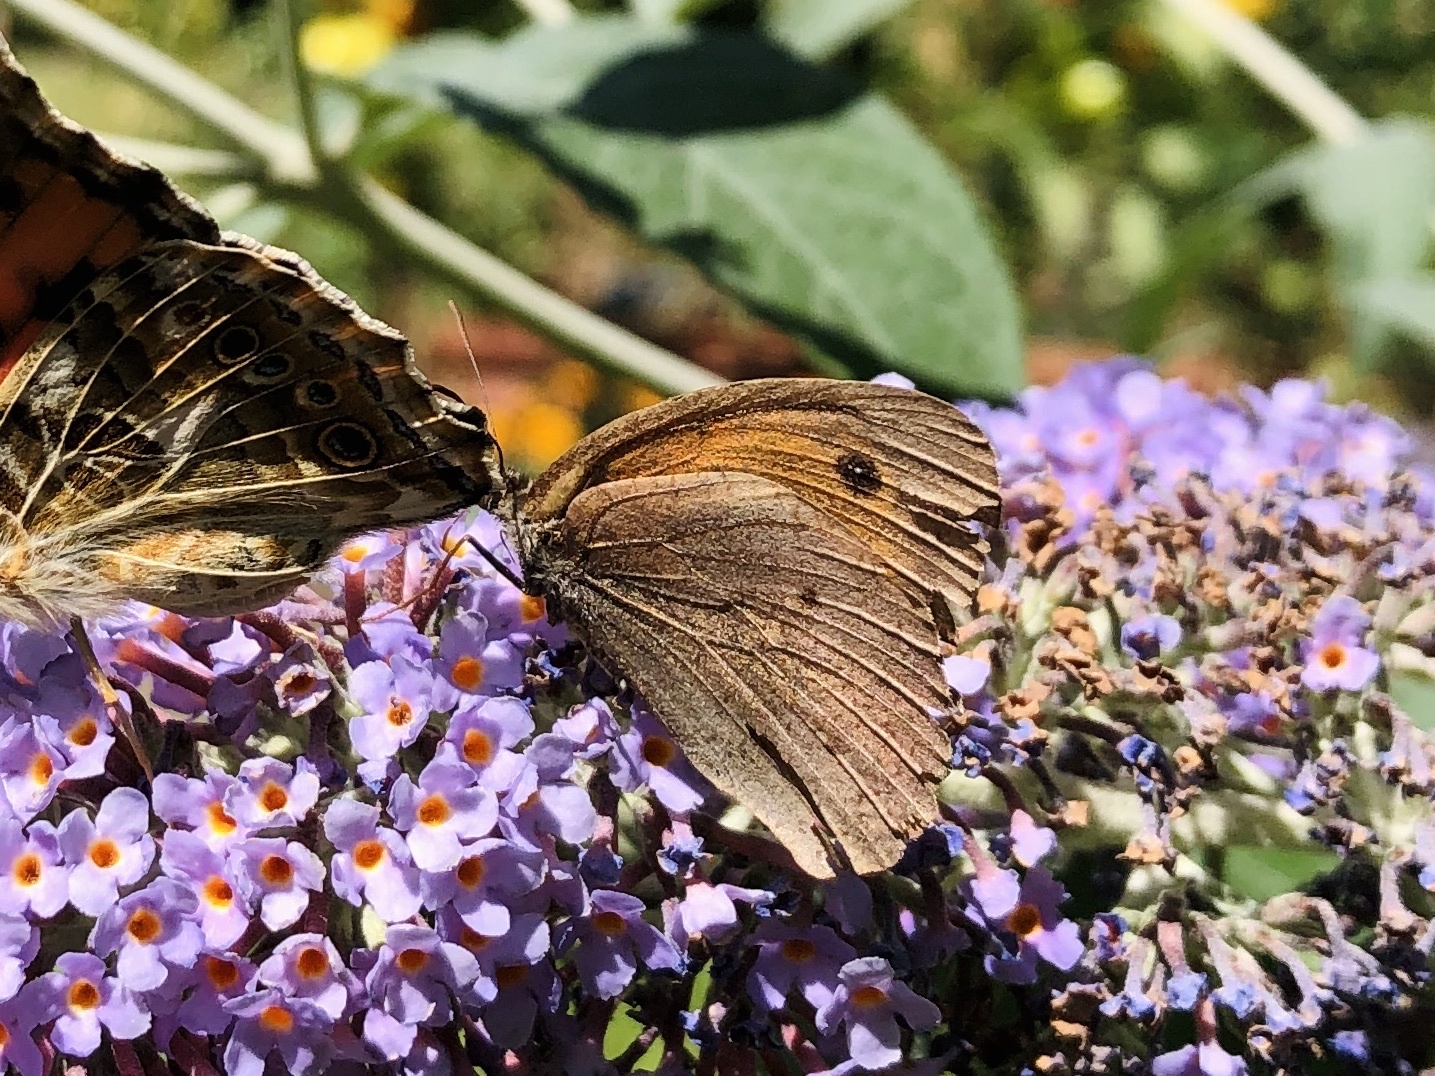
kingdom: Animalia
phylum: Arthropoda
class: Insecta
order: Lepidoptera
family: Nymphalidae
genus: Maniola
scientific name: Maniola jurtina
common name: Meadow brown
